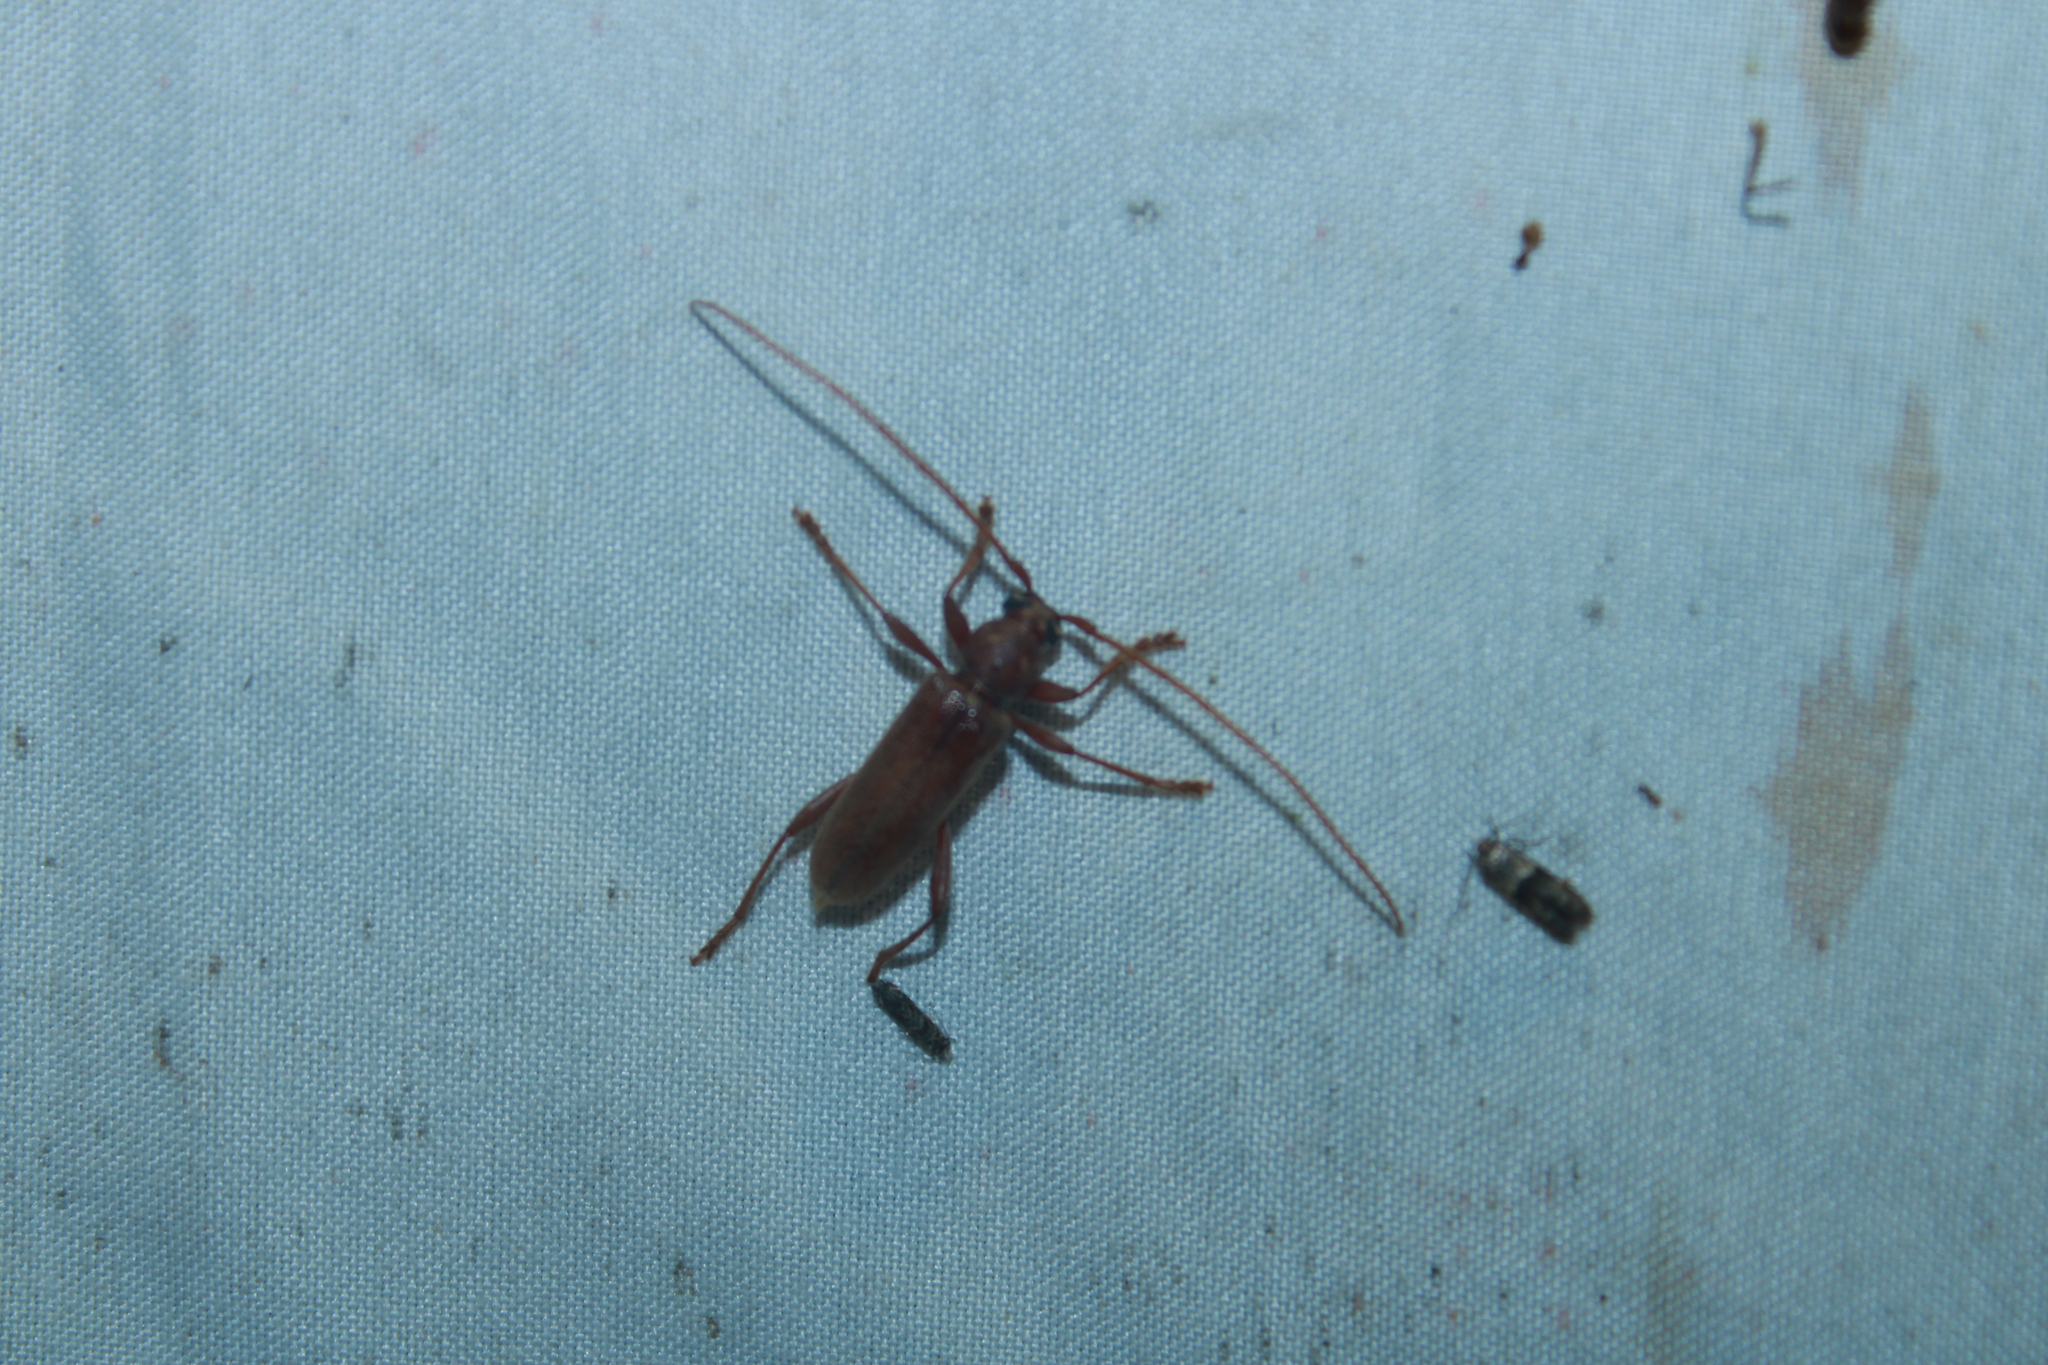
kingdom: Animalia
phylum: Arthropoda
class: Insecta
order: Coleoptera
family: Cerambycidae
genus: Hesperophanes
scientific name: Hesperophanes pubescens
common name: Longhorned wood-boring beetle
